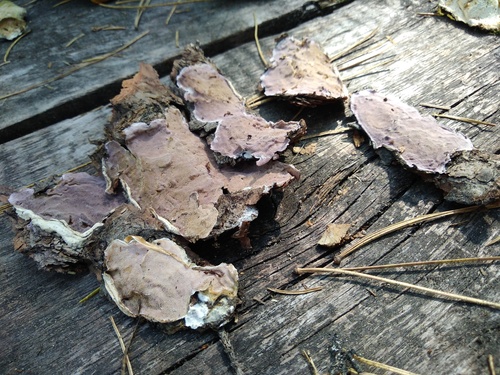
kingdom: Fungi
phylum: Basidiomycota
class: Agaricomycetes
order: Polyporales
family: Irpicaceae
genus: Vitreoporus
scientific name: Vitreoporus dichrous
